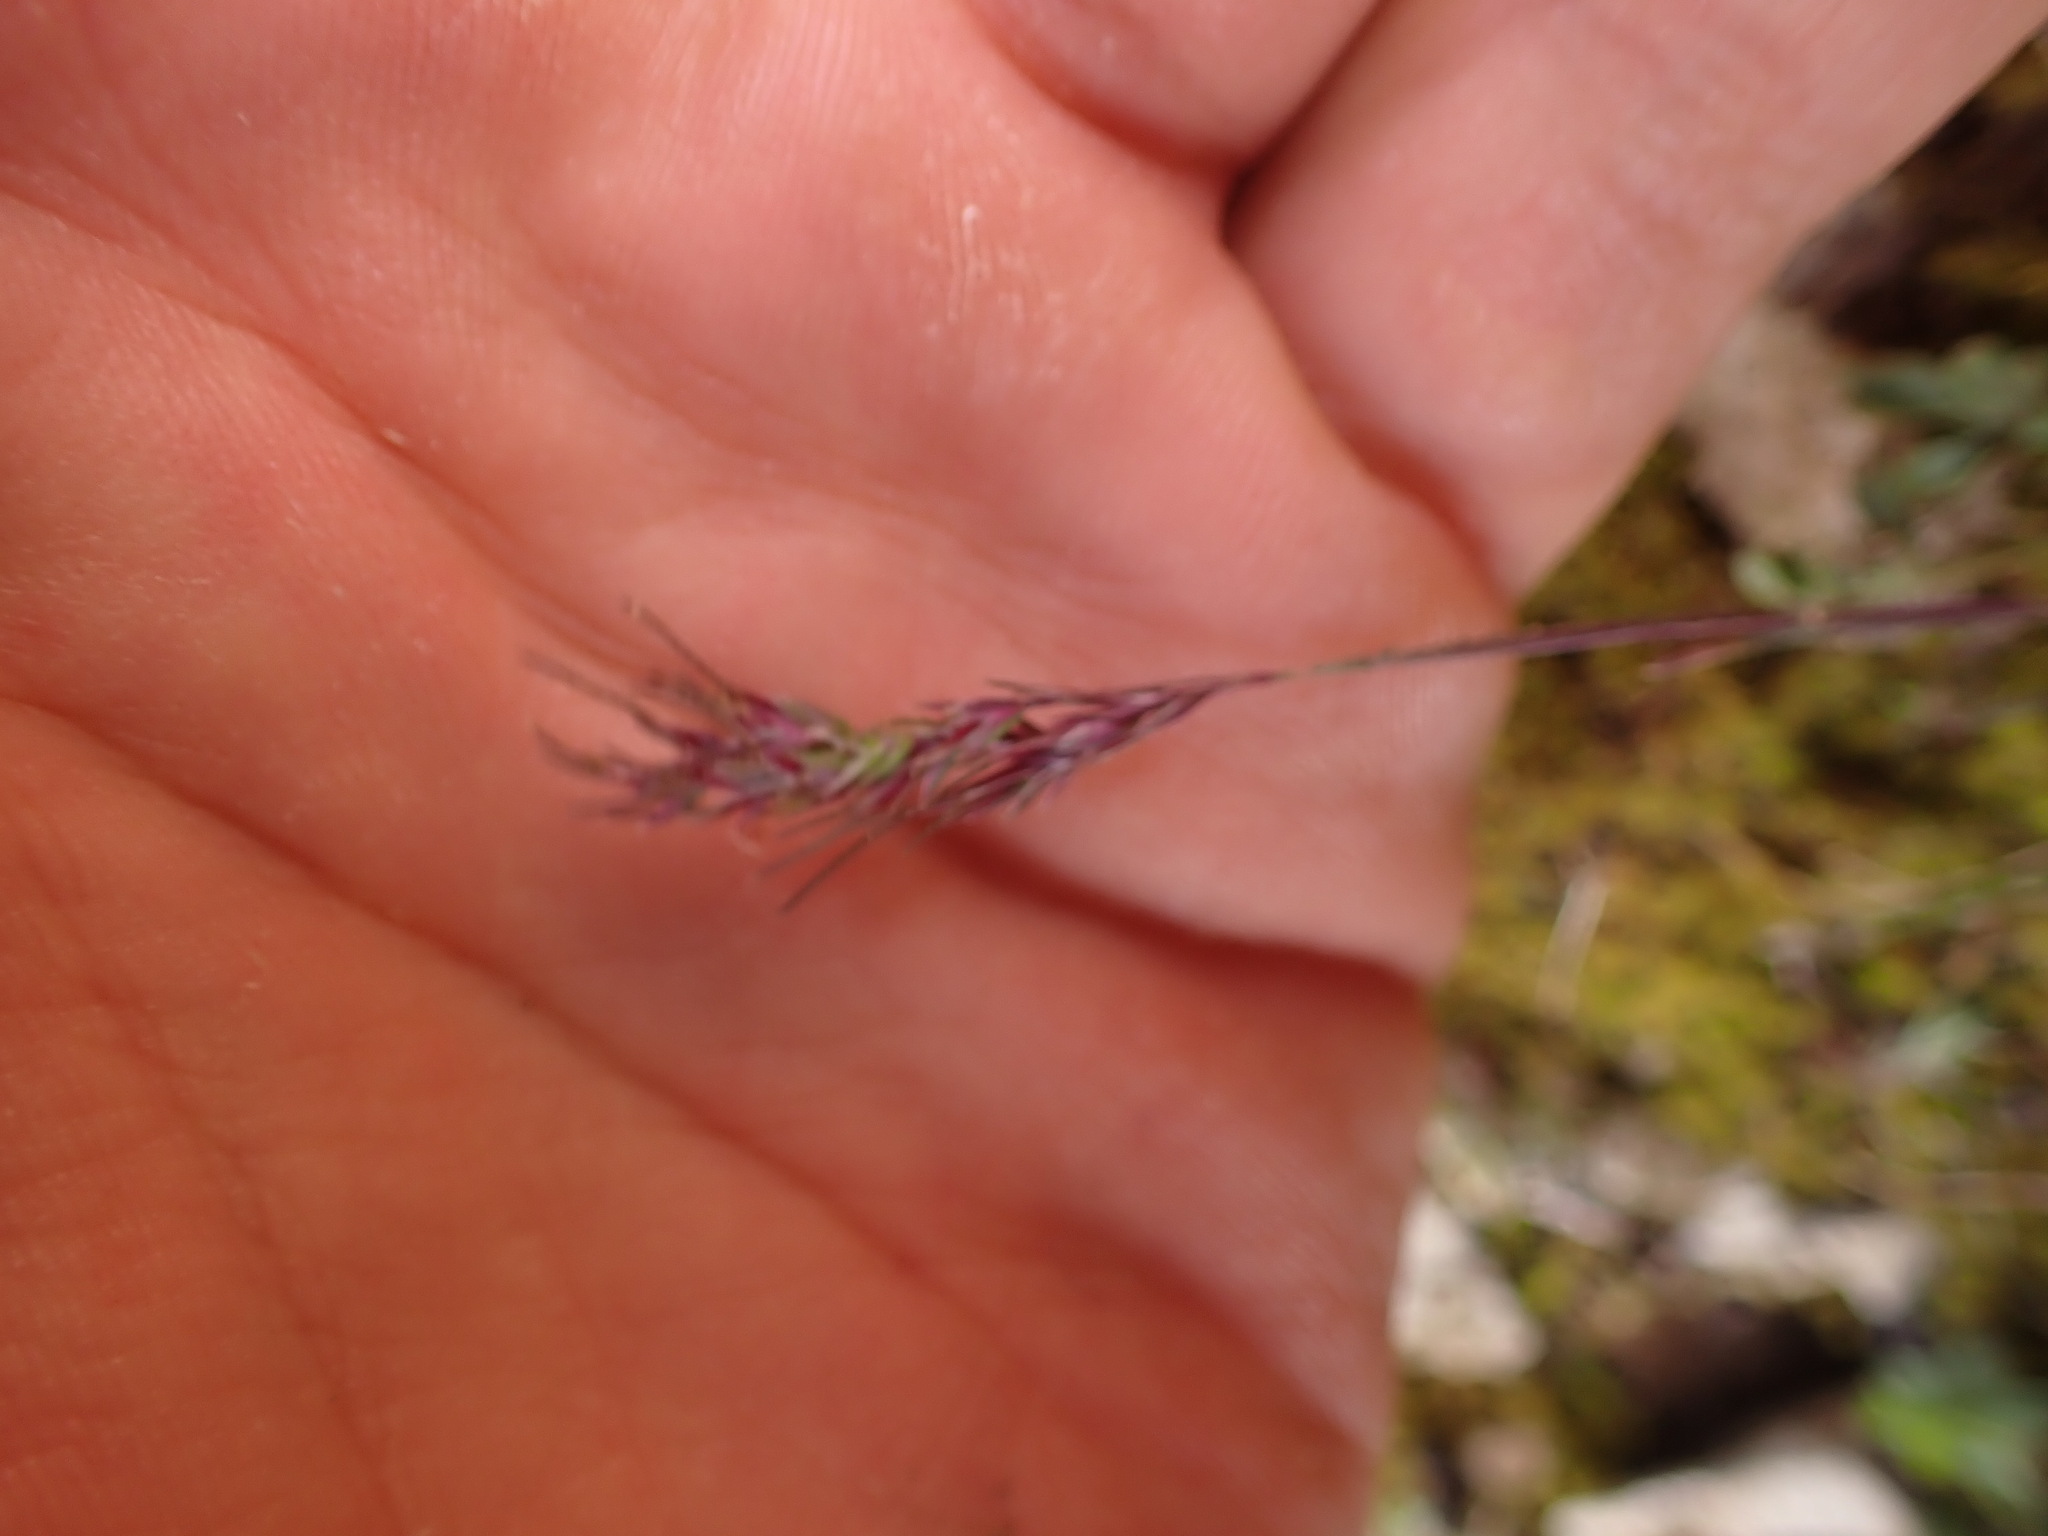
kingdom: Plantae
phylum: Tracheophyta
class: Liliopsida
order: Poales
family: Poaceae
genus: Poa
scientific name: Poa bulbosa
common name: Bulbous bluegrass
